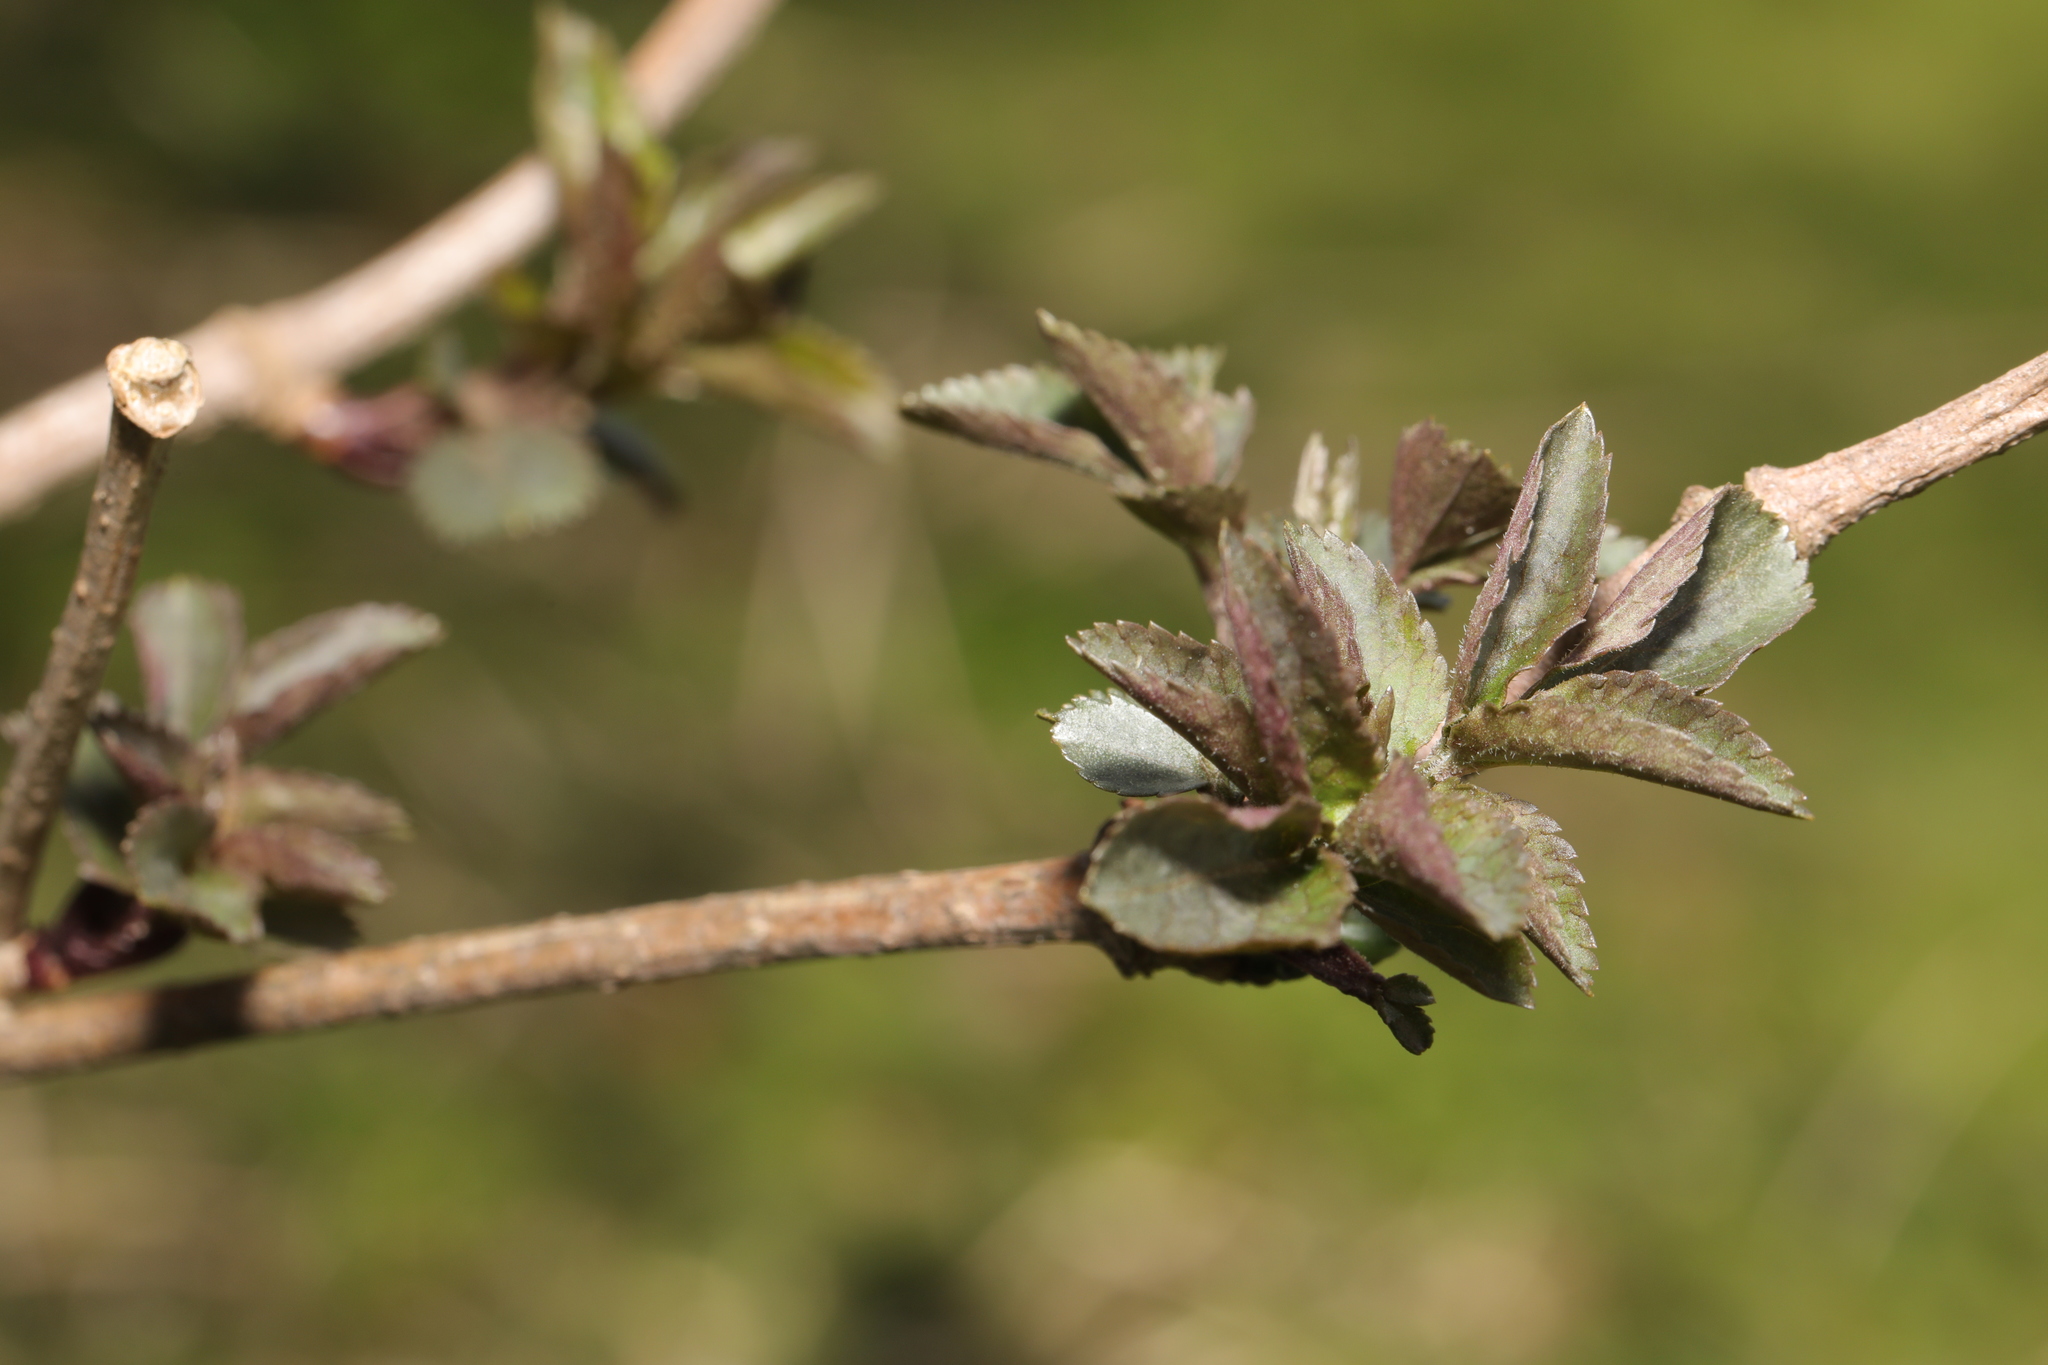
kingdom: Plantae
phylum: Tracheophyta
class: Magnoliopsida
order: Dipsacales
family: Viburnaceae
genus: Sambucus
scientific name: Sambucus nigra
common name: Elder
